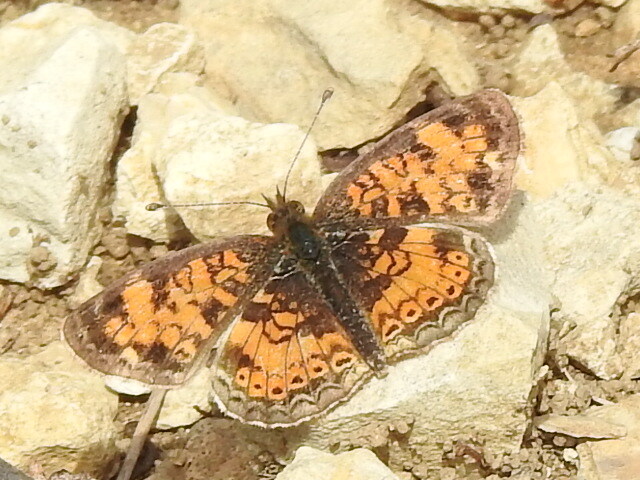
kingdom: Animalia
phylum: Arthropoda
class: Insecta
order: Lepidoptera
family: Nymphalidae
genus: Phyciodes
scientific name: Phyciodes tharos
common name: Pearl crescent
